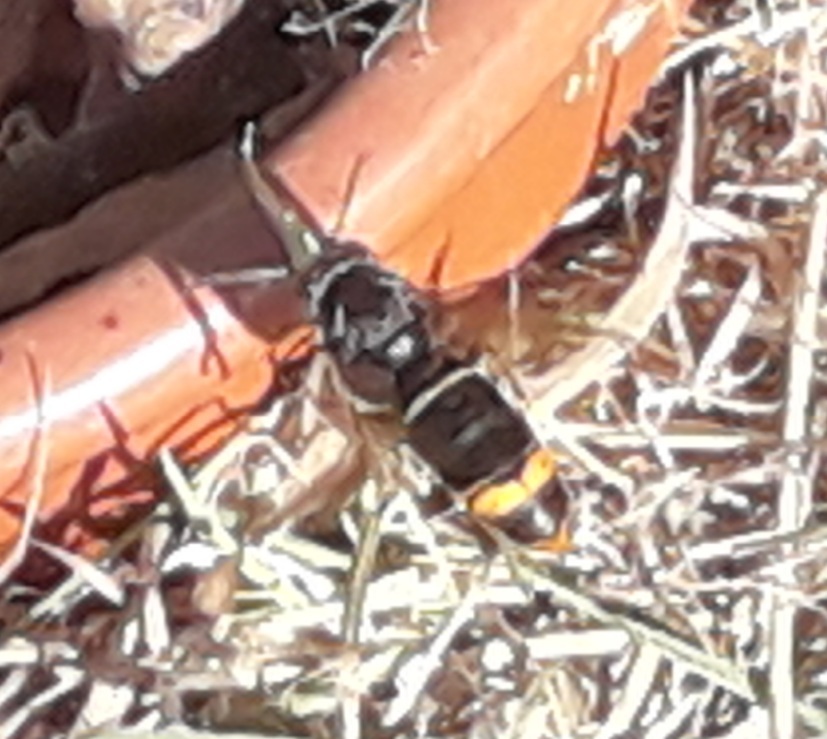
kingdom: Animalia
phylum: Arthropoda
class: Insecta
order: Hymenoptera
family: Vespidae
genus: Vespa
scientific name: Vespa velutina
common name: Asian hornet
